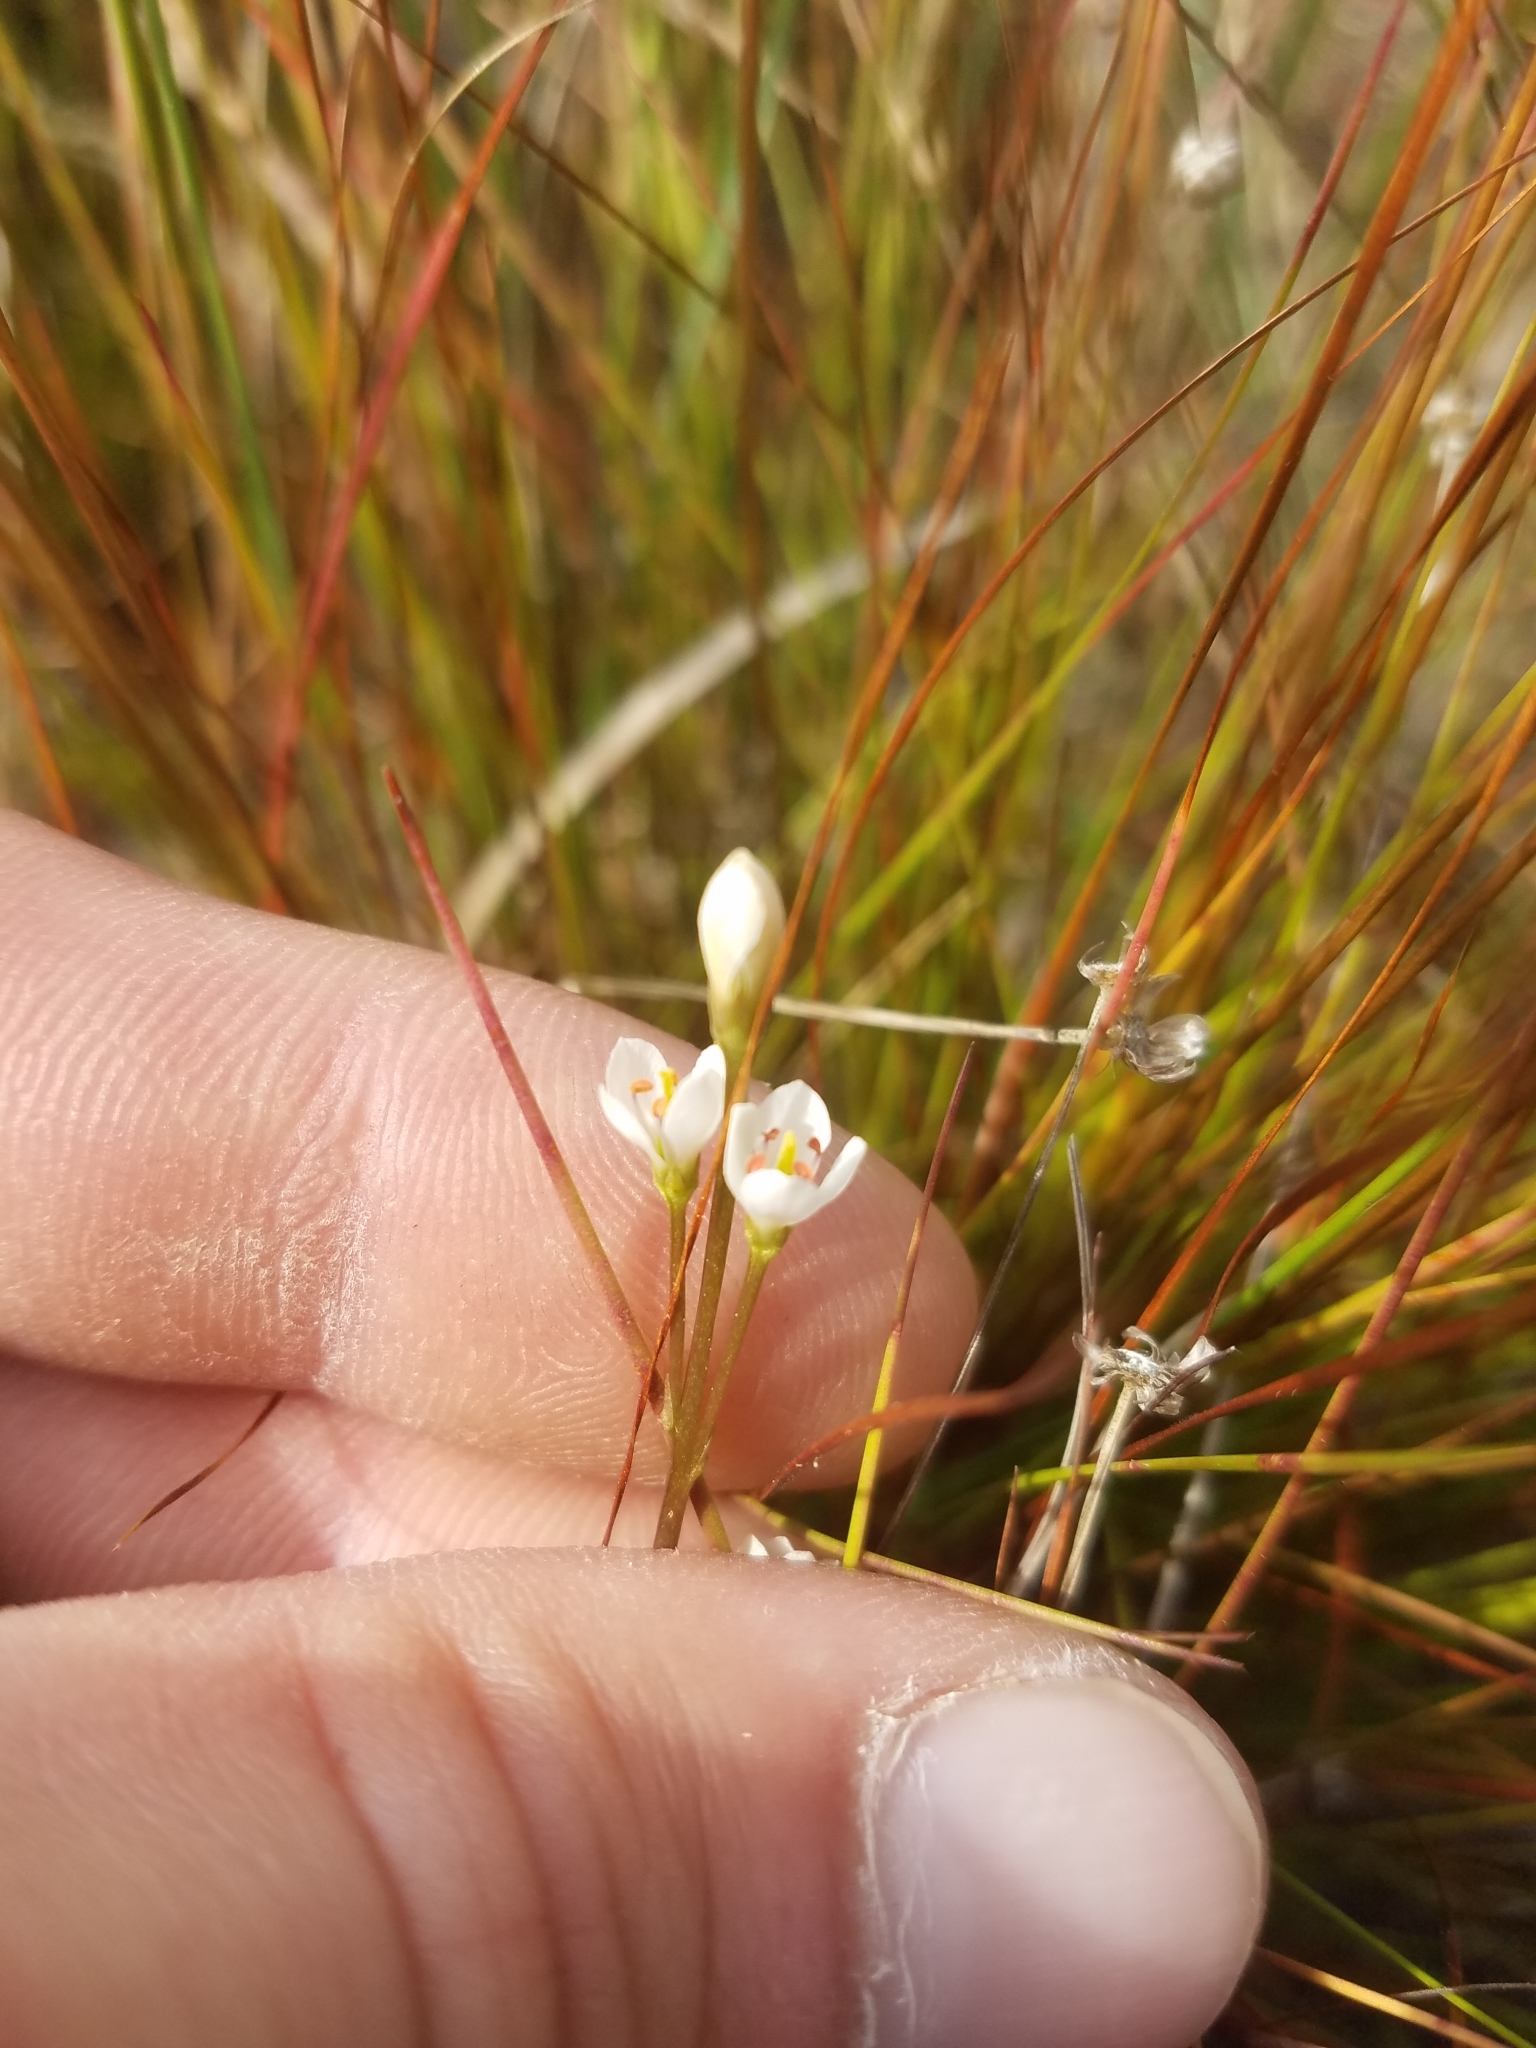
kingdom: Plantae
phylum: Tracheophyta
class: Magnoliopsida
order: Gentianales
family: Gentianaceae
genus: Bartonia
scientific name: Bartonia verna
